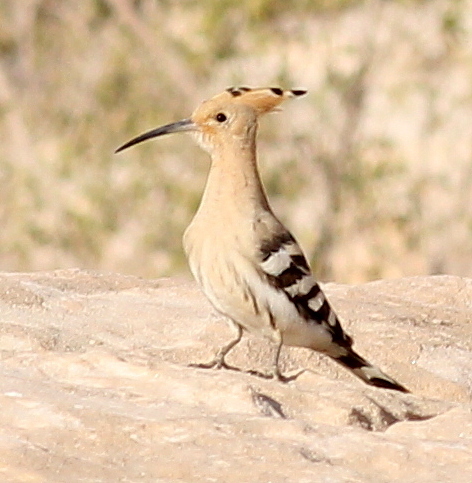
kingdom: Animalia
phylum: Chordata
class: Aves
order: Bucerotiformes
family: Upupidae
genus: Upupa
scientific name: Upupa epops
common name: Eurasian hoopoe
